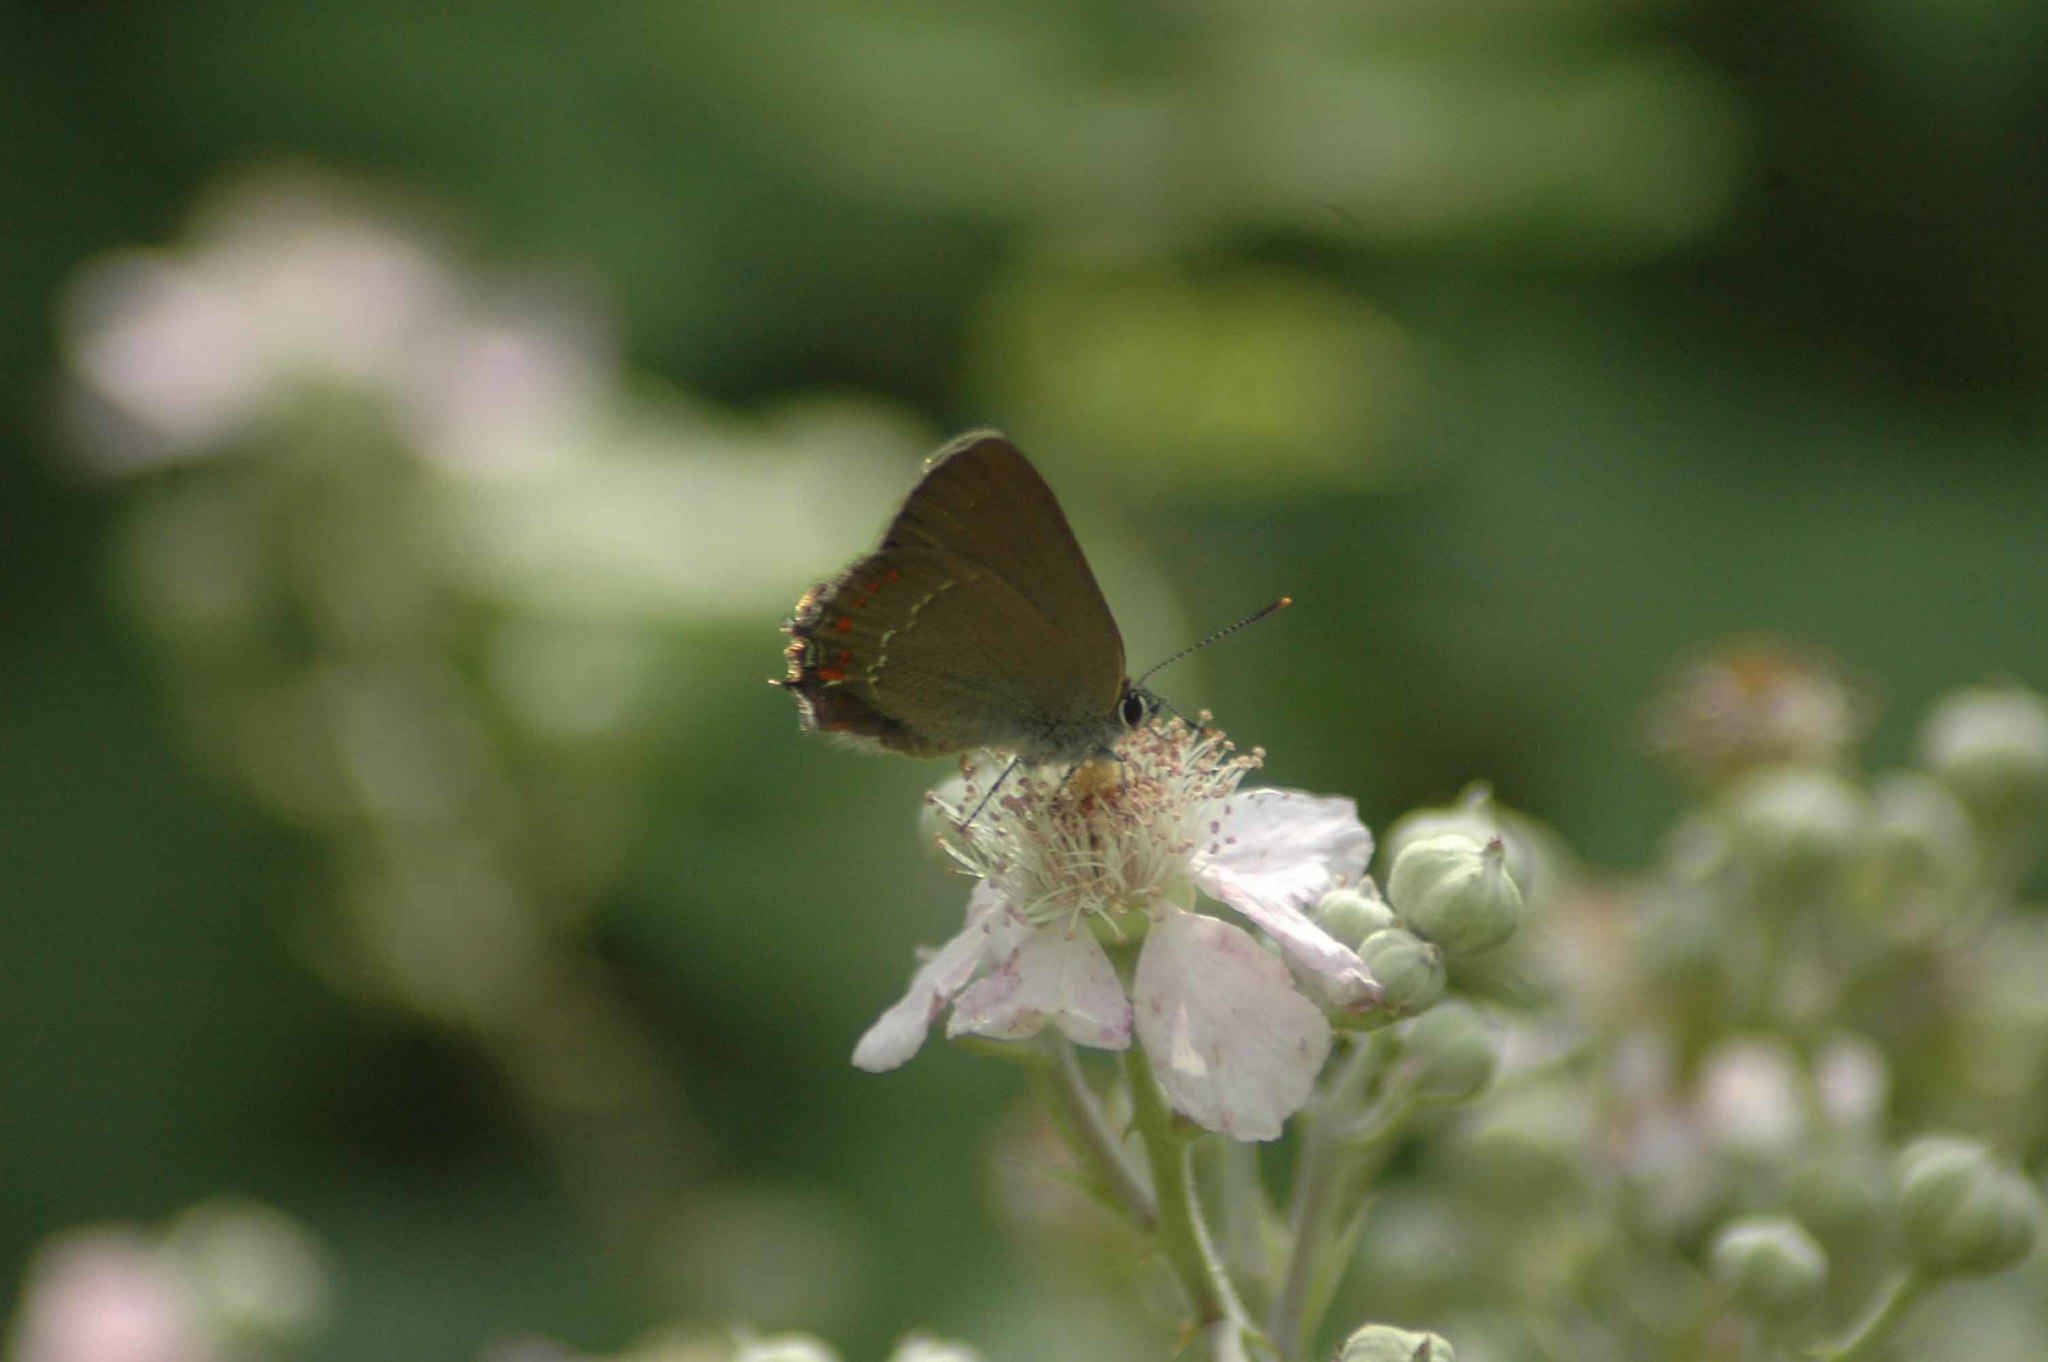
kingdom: Animalia
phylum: Arthropoda
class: Insecta
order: Lepidoptera
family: Lycaenidae
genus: Fixsenia
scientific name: Fixsenia esculi
